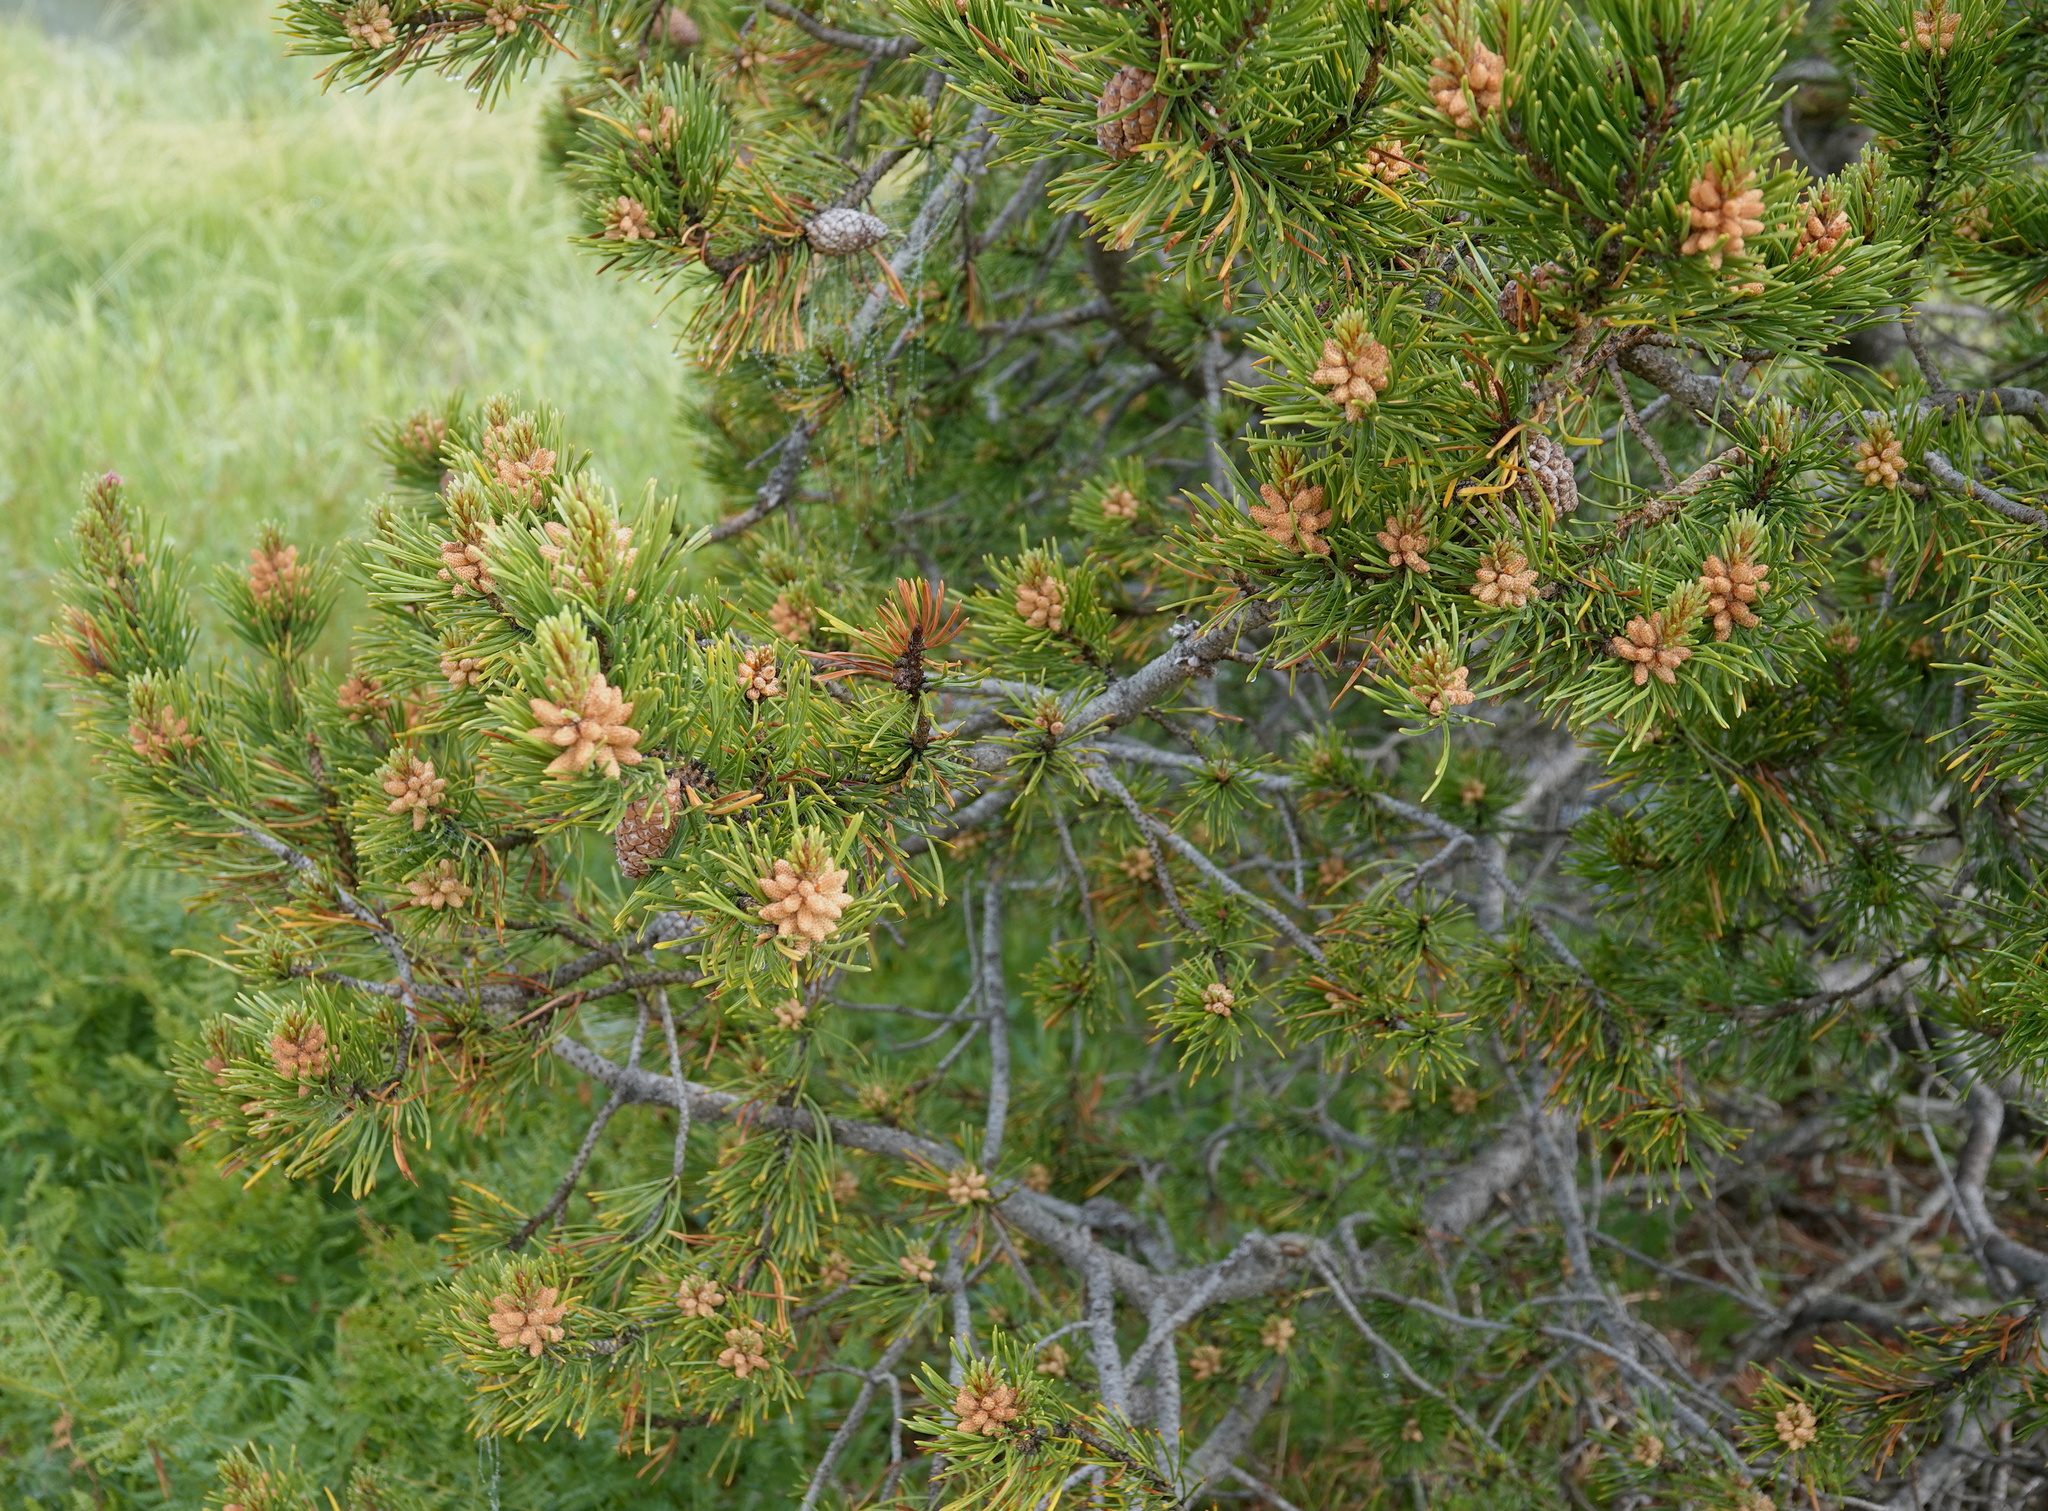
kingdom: Plantae
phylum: Tracheophyta
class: Pinopsida
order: Pinales
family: Pinaceae
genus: Pinus
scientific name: Pinus contorta
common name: Lodgepole pine
